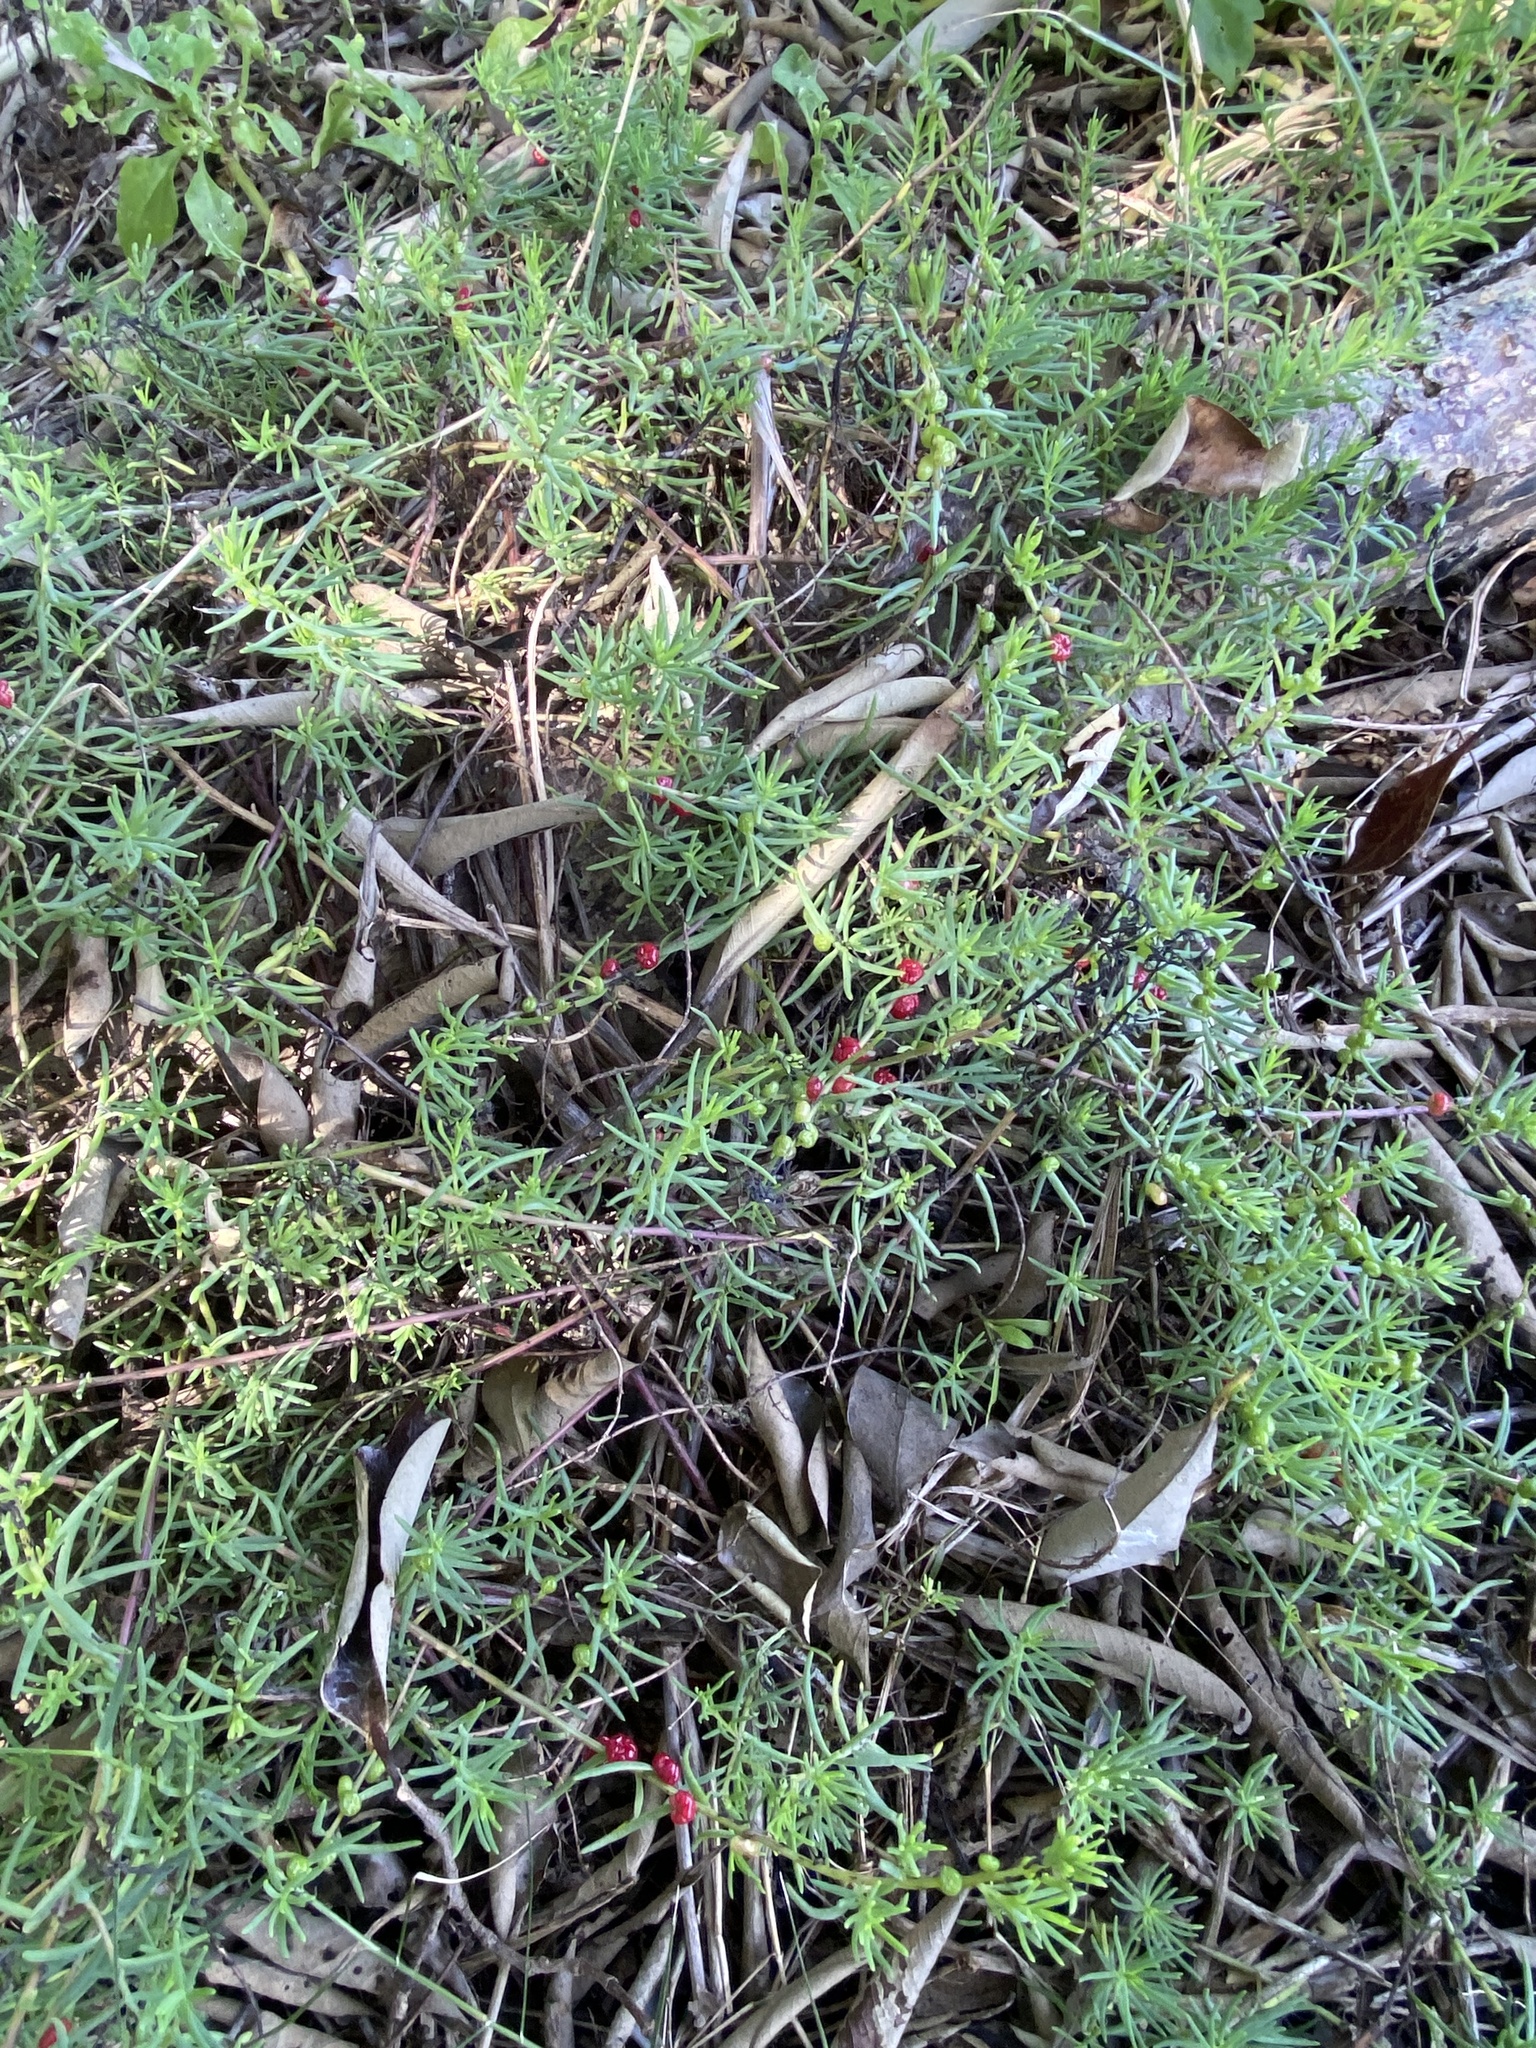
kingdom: Plantae
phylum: Tracheophyta
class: Magnoliopsida
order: Caryophyllales
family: Amaranthaceae
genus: Enchylaena
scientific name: Enchylaena tomentosa
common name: Ruby saltbush
